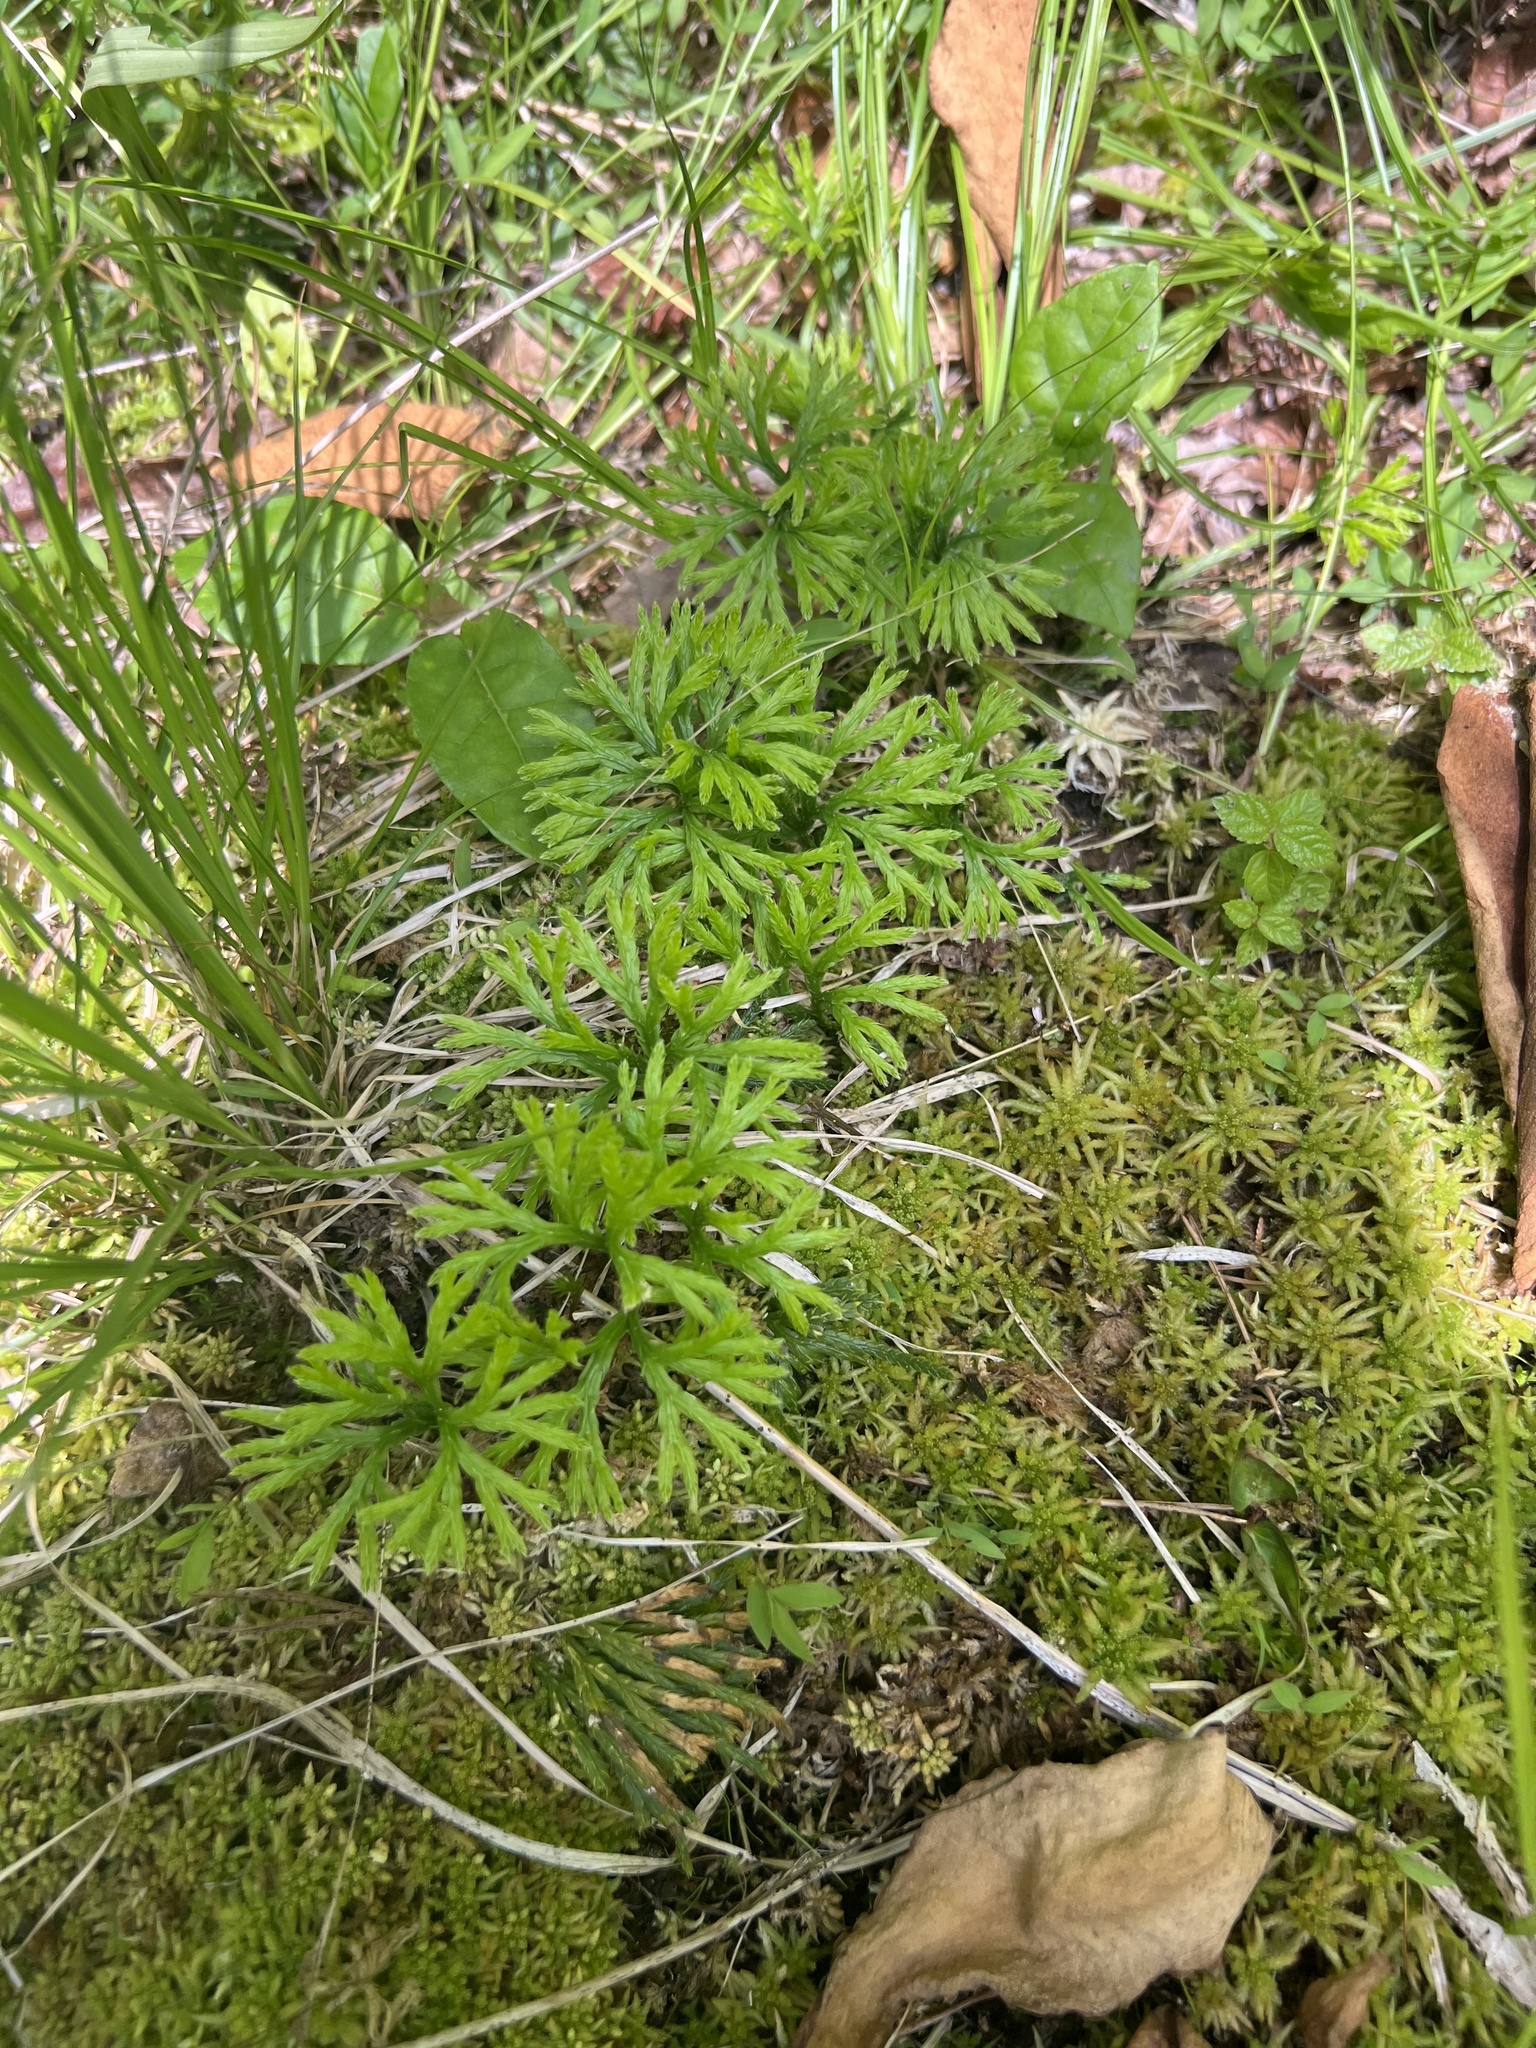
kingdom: Plantae
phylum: Tracheophyta
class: Lycopodiopsida
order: Lycopodiales
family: Lycopodiaceae
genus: Diphasiastrum
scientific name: Diphasiastrum digitatum
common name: Southern running-pine
